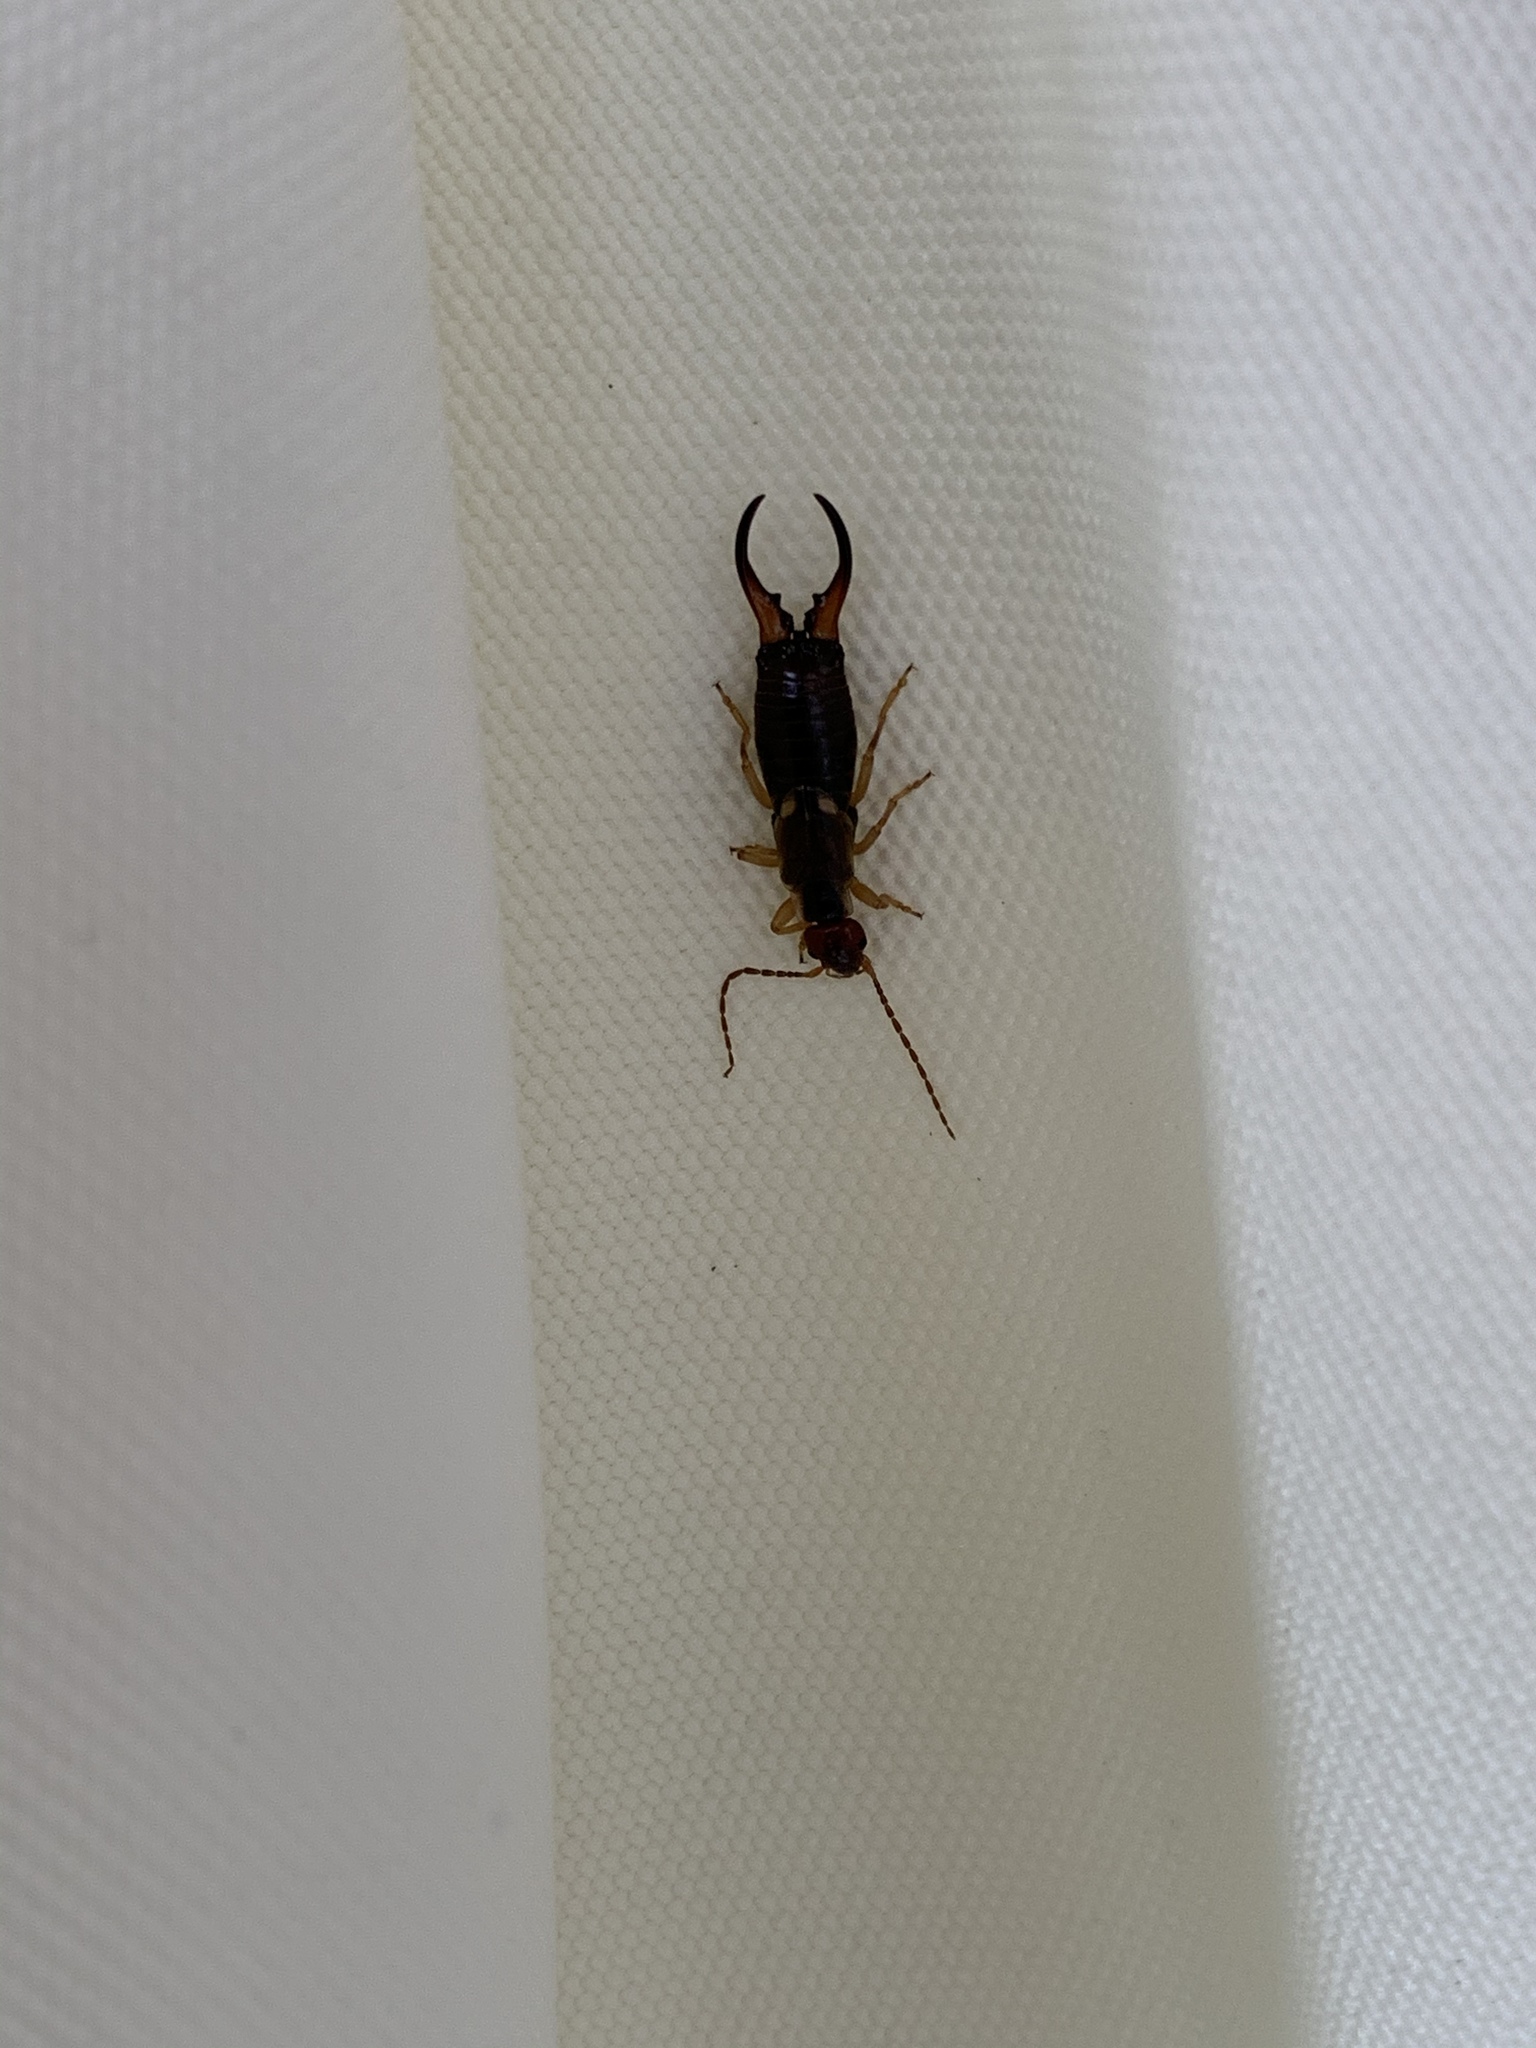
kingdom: Animalia
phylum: Arthropoda
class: Insecta
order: Dermaptera
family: Forficulidae
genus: Forficula
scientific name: Forficula
